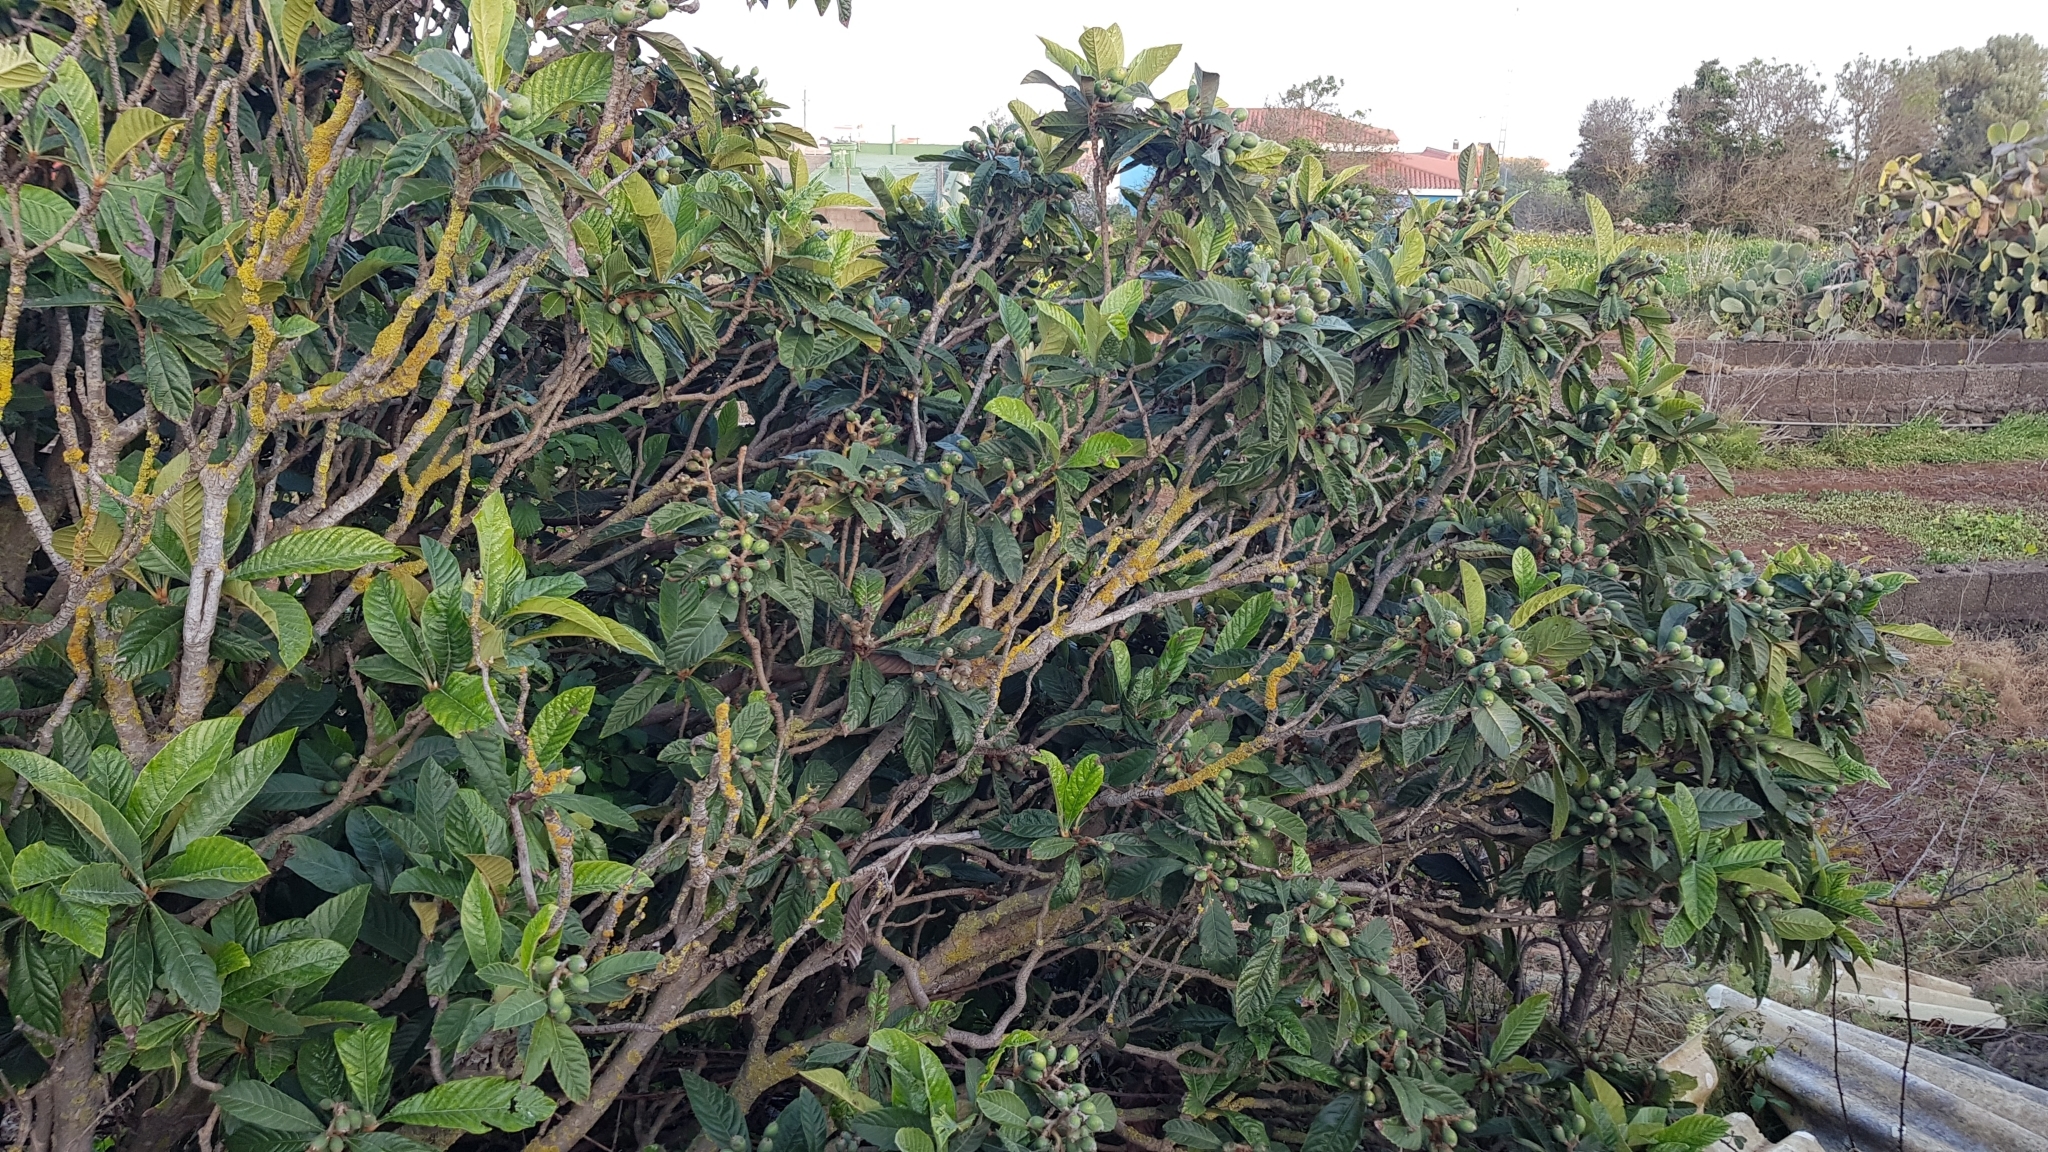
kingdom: Plantae
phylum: Tracheophyta
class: Magnoliopsida
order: Rosales
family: Rosaceae
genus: Rhaphiolepis
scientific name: Rhaphiolepis bibas
